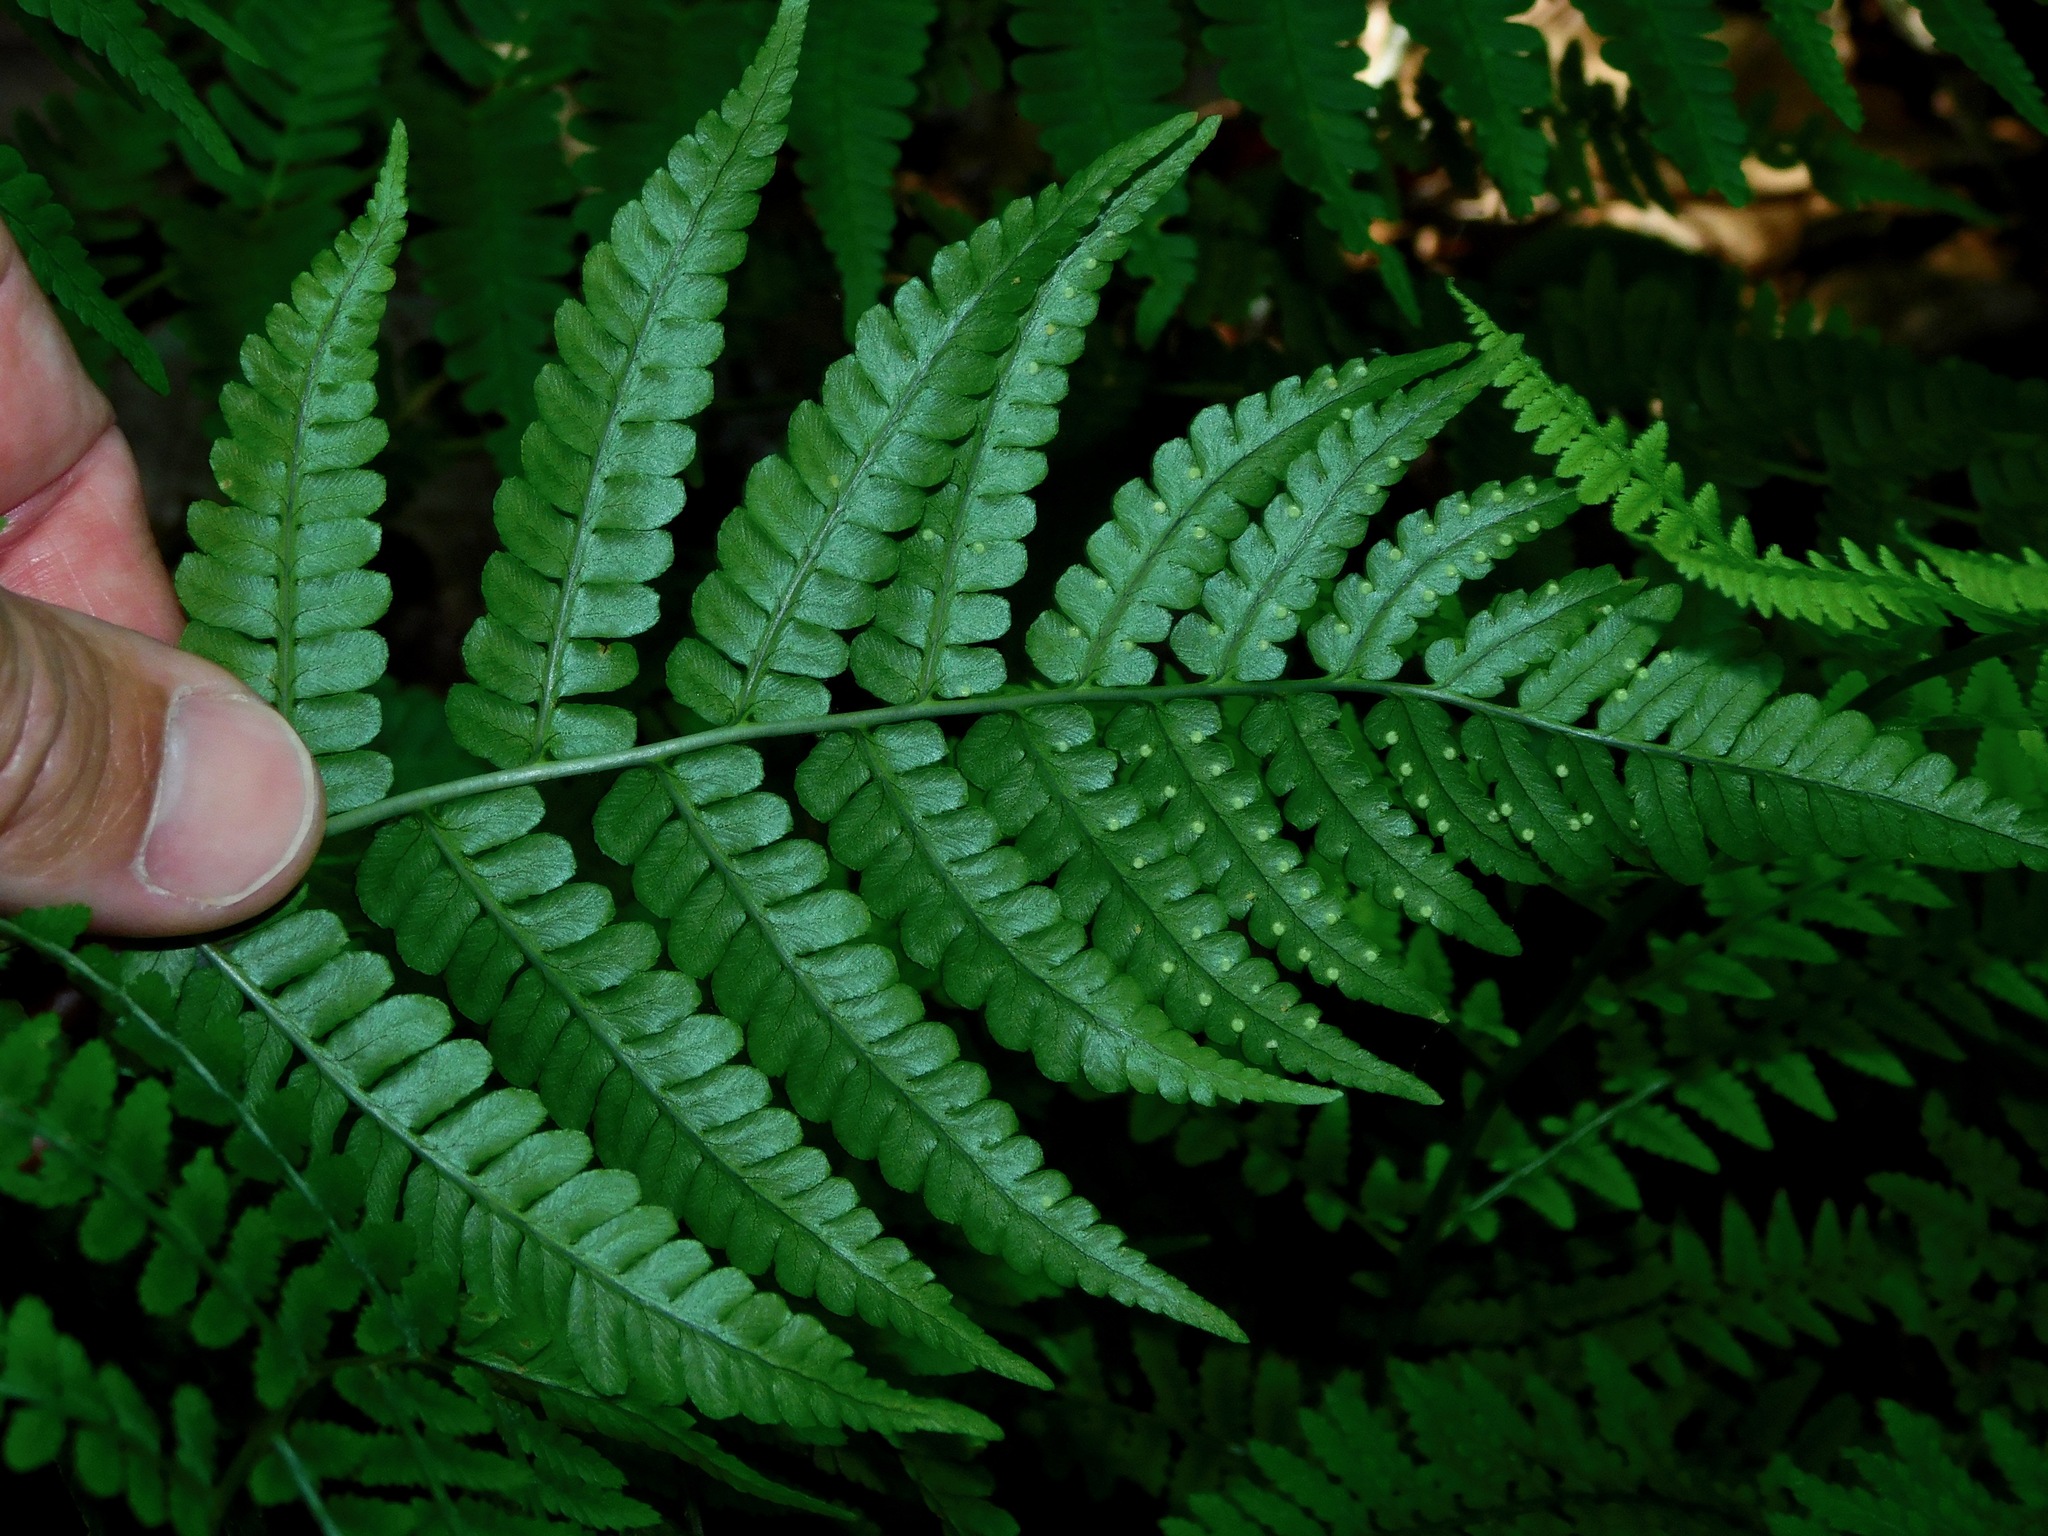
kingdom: Plantae
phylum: Tracheophyta
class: Polypodiopsida
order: Polypodiales
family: Dryopteridaceae
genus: Dryopteris
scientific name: Dryopteris marginalis
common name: Marginal wood fern
